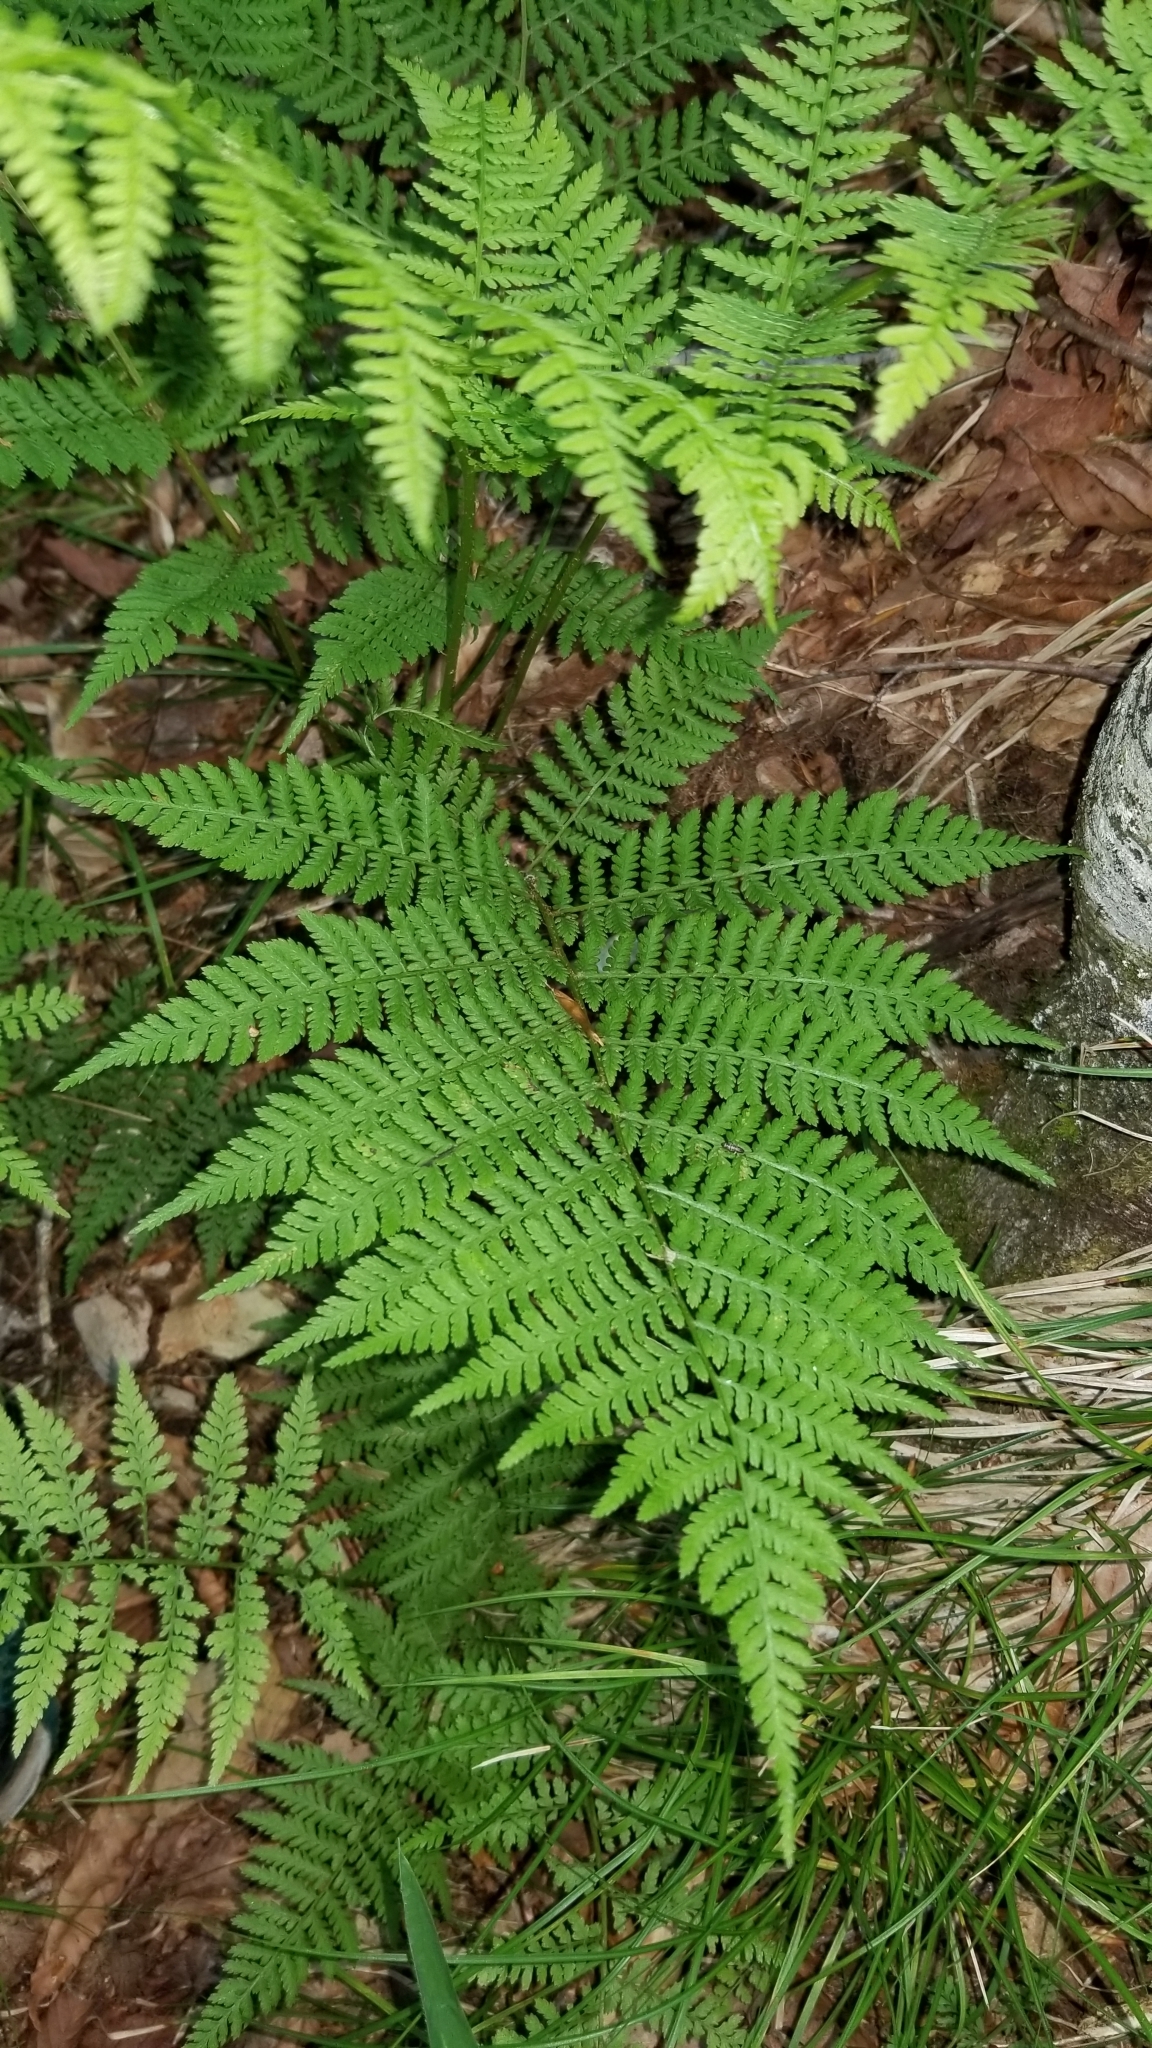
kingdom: Plantae
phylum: Tracheophyta
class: Polypodiopsida
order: Polypodiales
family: Athyriaceae
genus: Athyrium
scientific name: Athyrium asplenioides
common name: Southern lady fern
